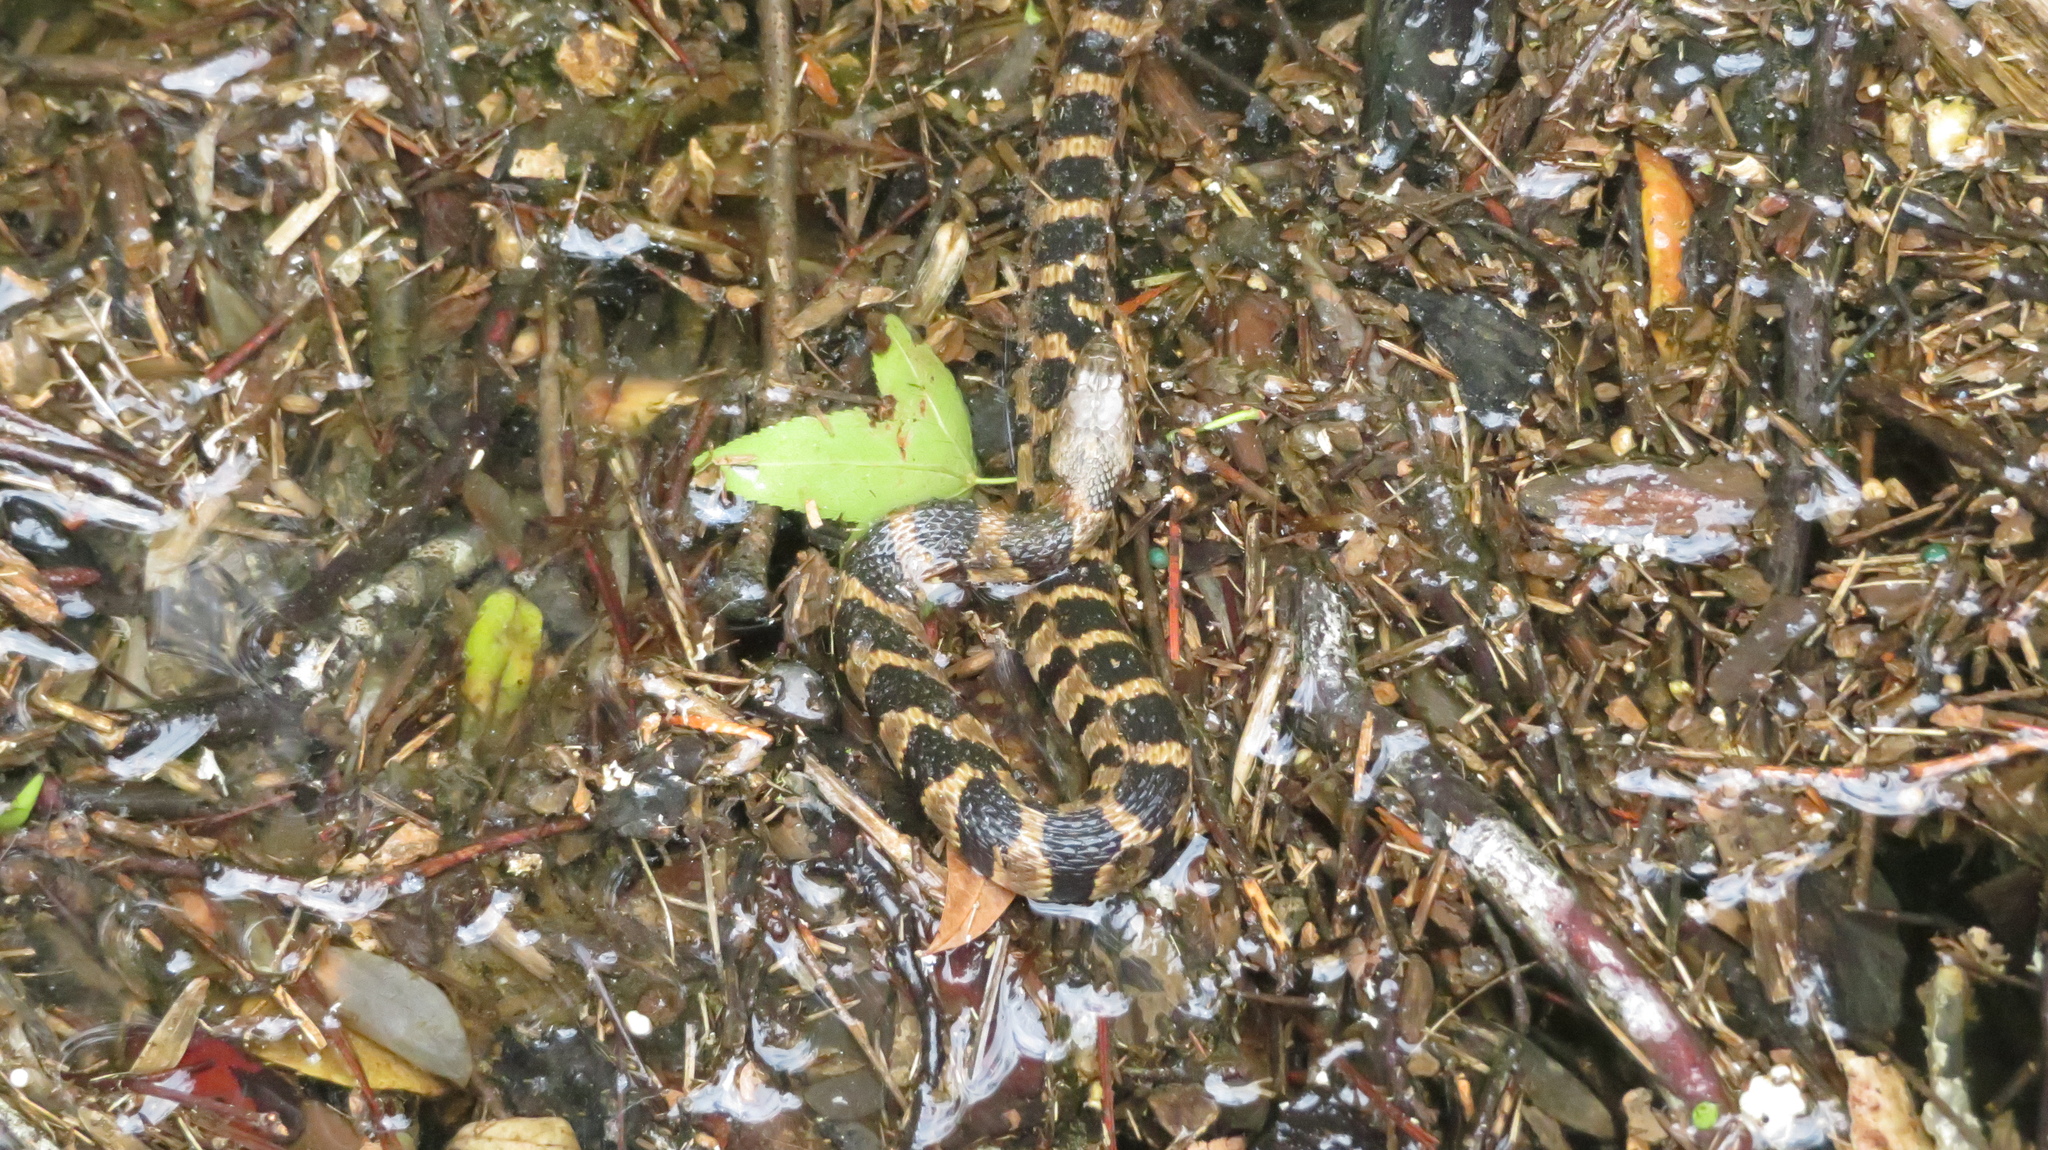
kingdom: Animalia
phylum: Chordata
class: Squamata
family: Colubridae
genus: Nerodia
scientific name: Nerodia sipedon
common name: Northern water snake
